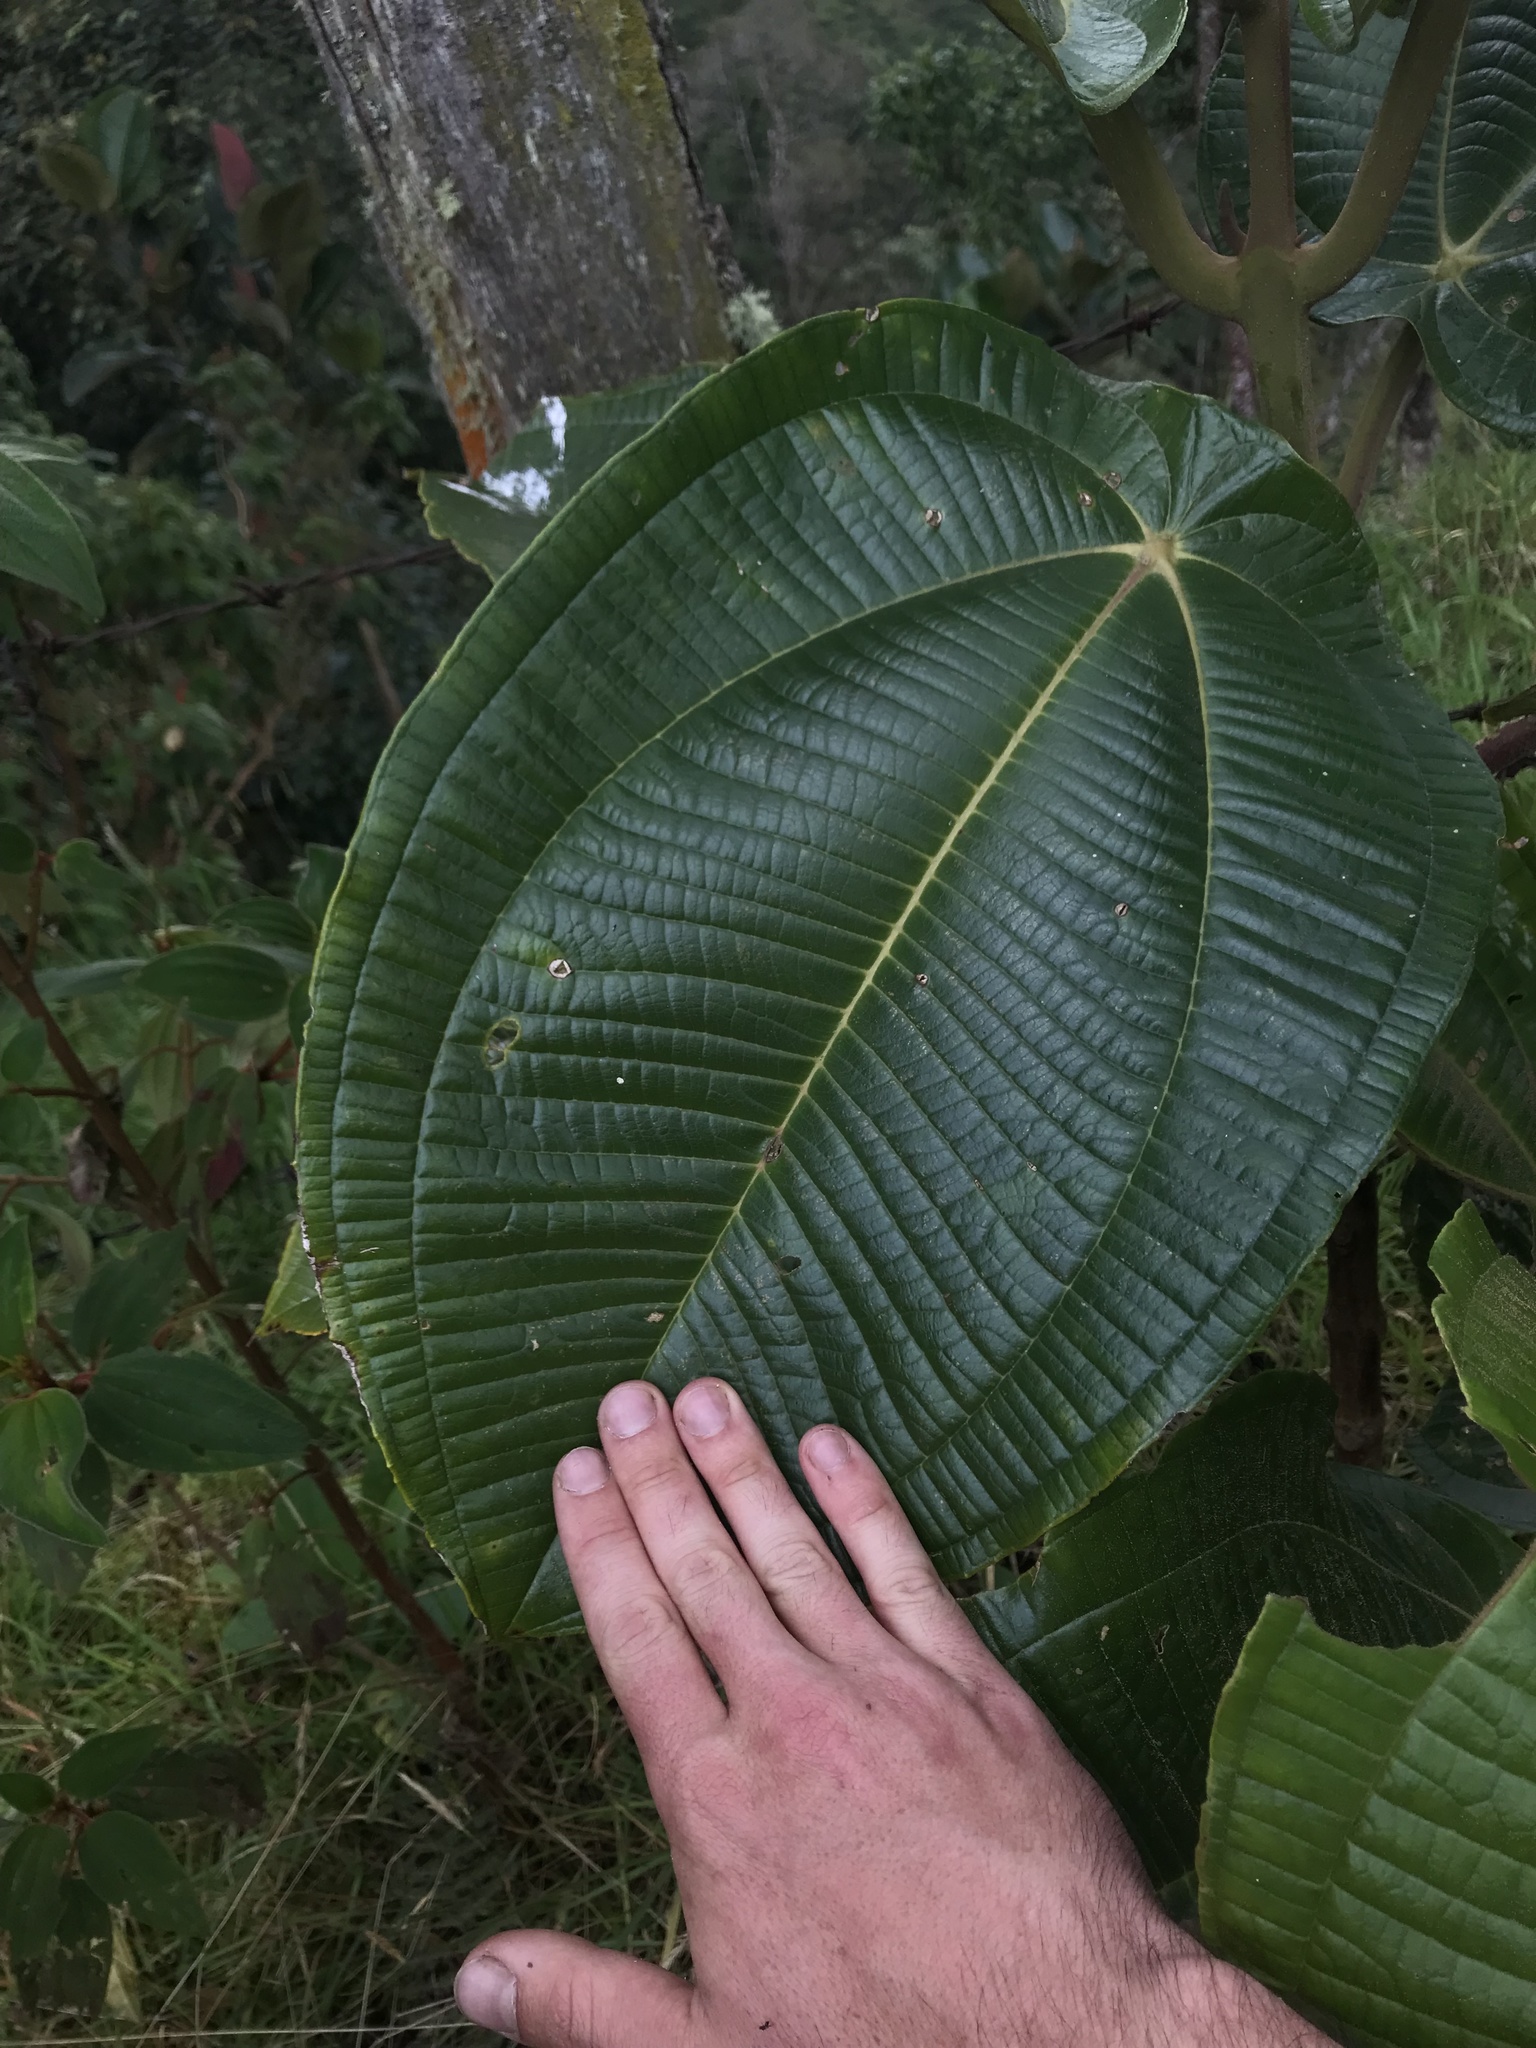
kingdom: Plantae
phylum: Tracheophyta
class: Magnoliopsida
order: Myrtales
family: Melastomataceae
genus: Meriania
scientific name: Meriania macrophylla
